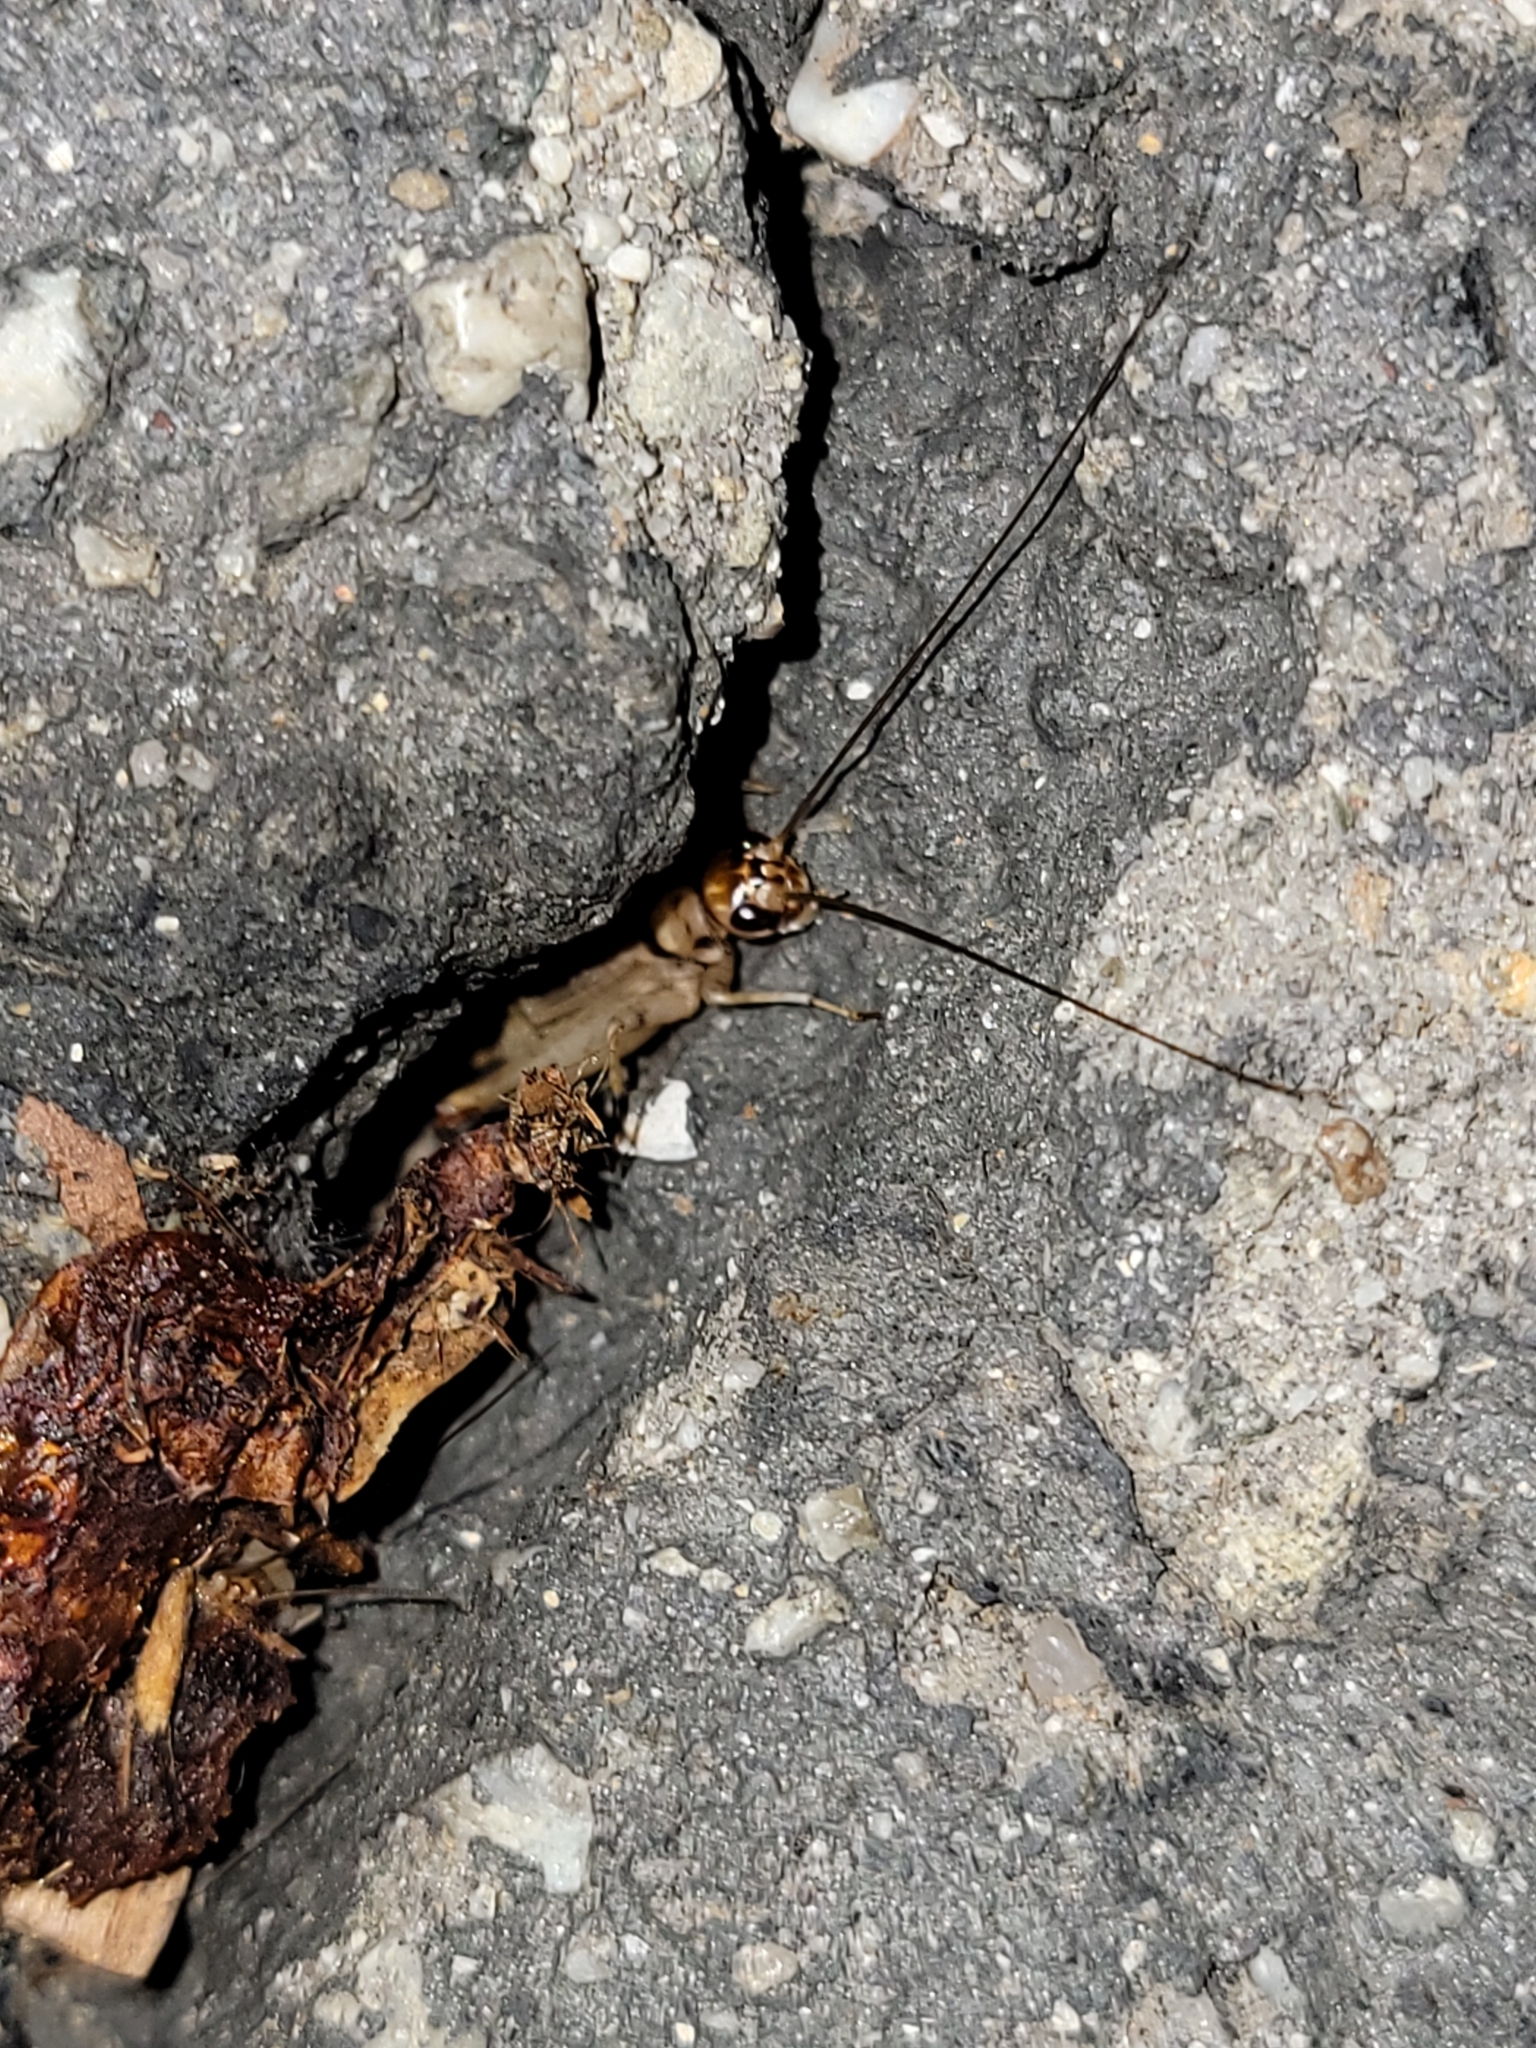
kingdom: Animalia
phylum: Arthropoda
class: Insecta
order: Orthoptera
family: Gryllidae
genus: Gryllodes
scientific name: Gryllodes sigillatus
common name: Tropical house cricket
